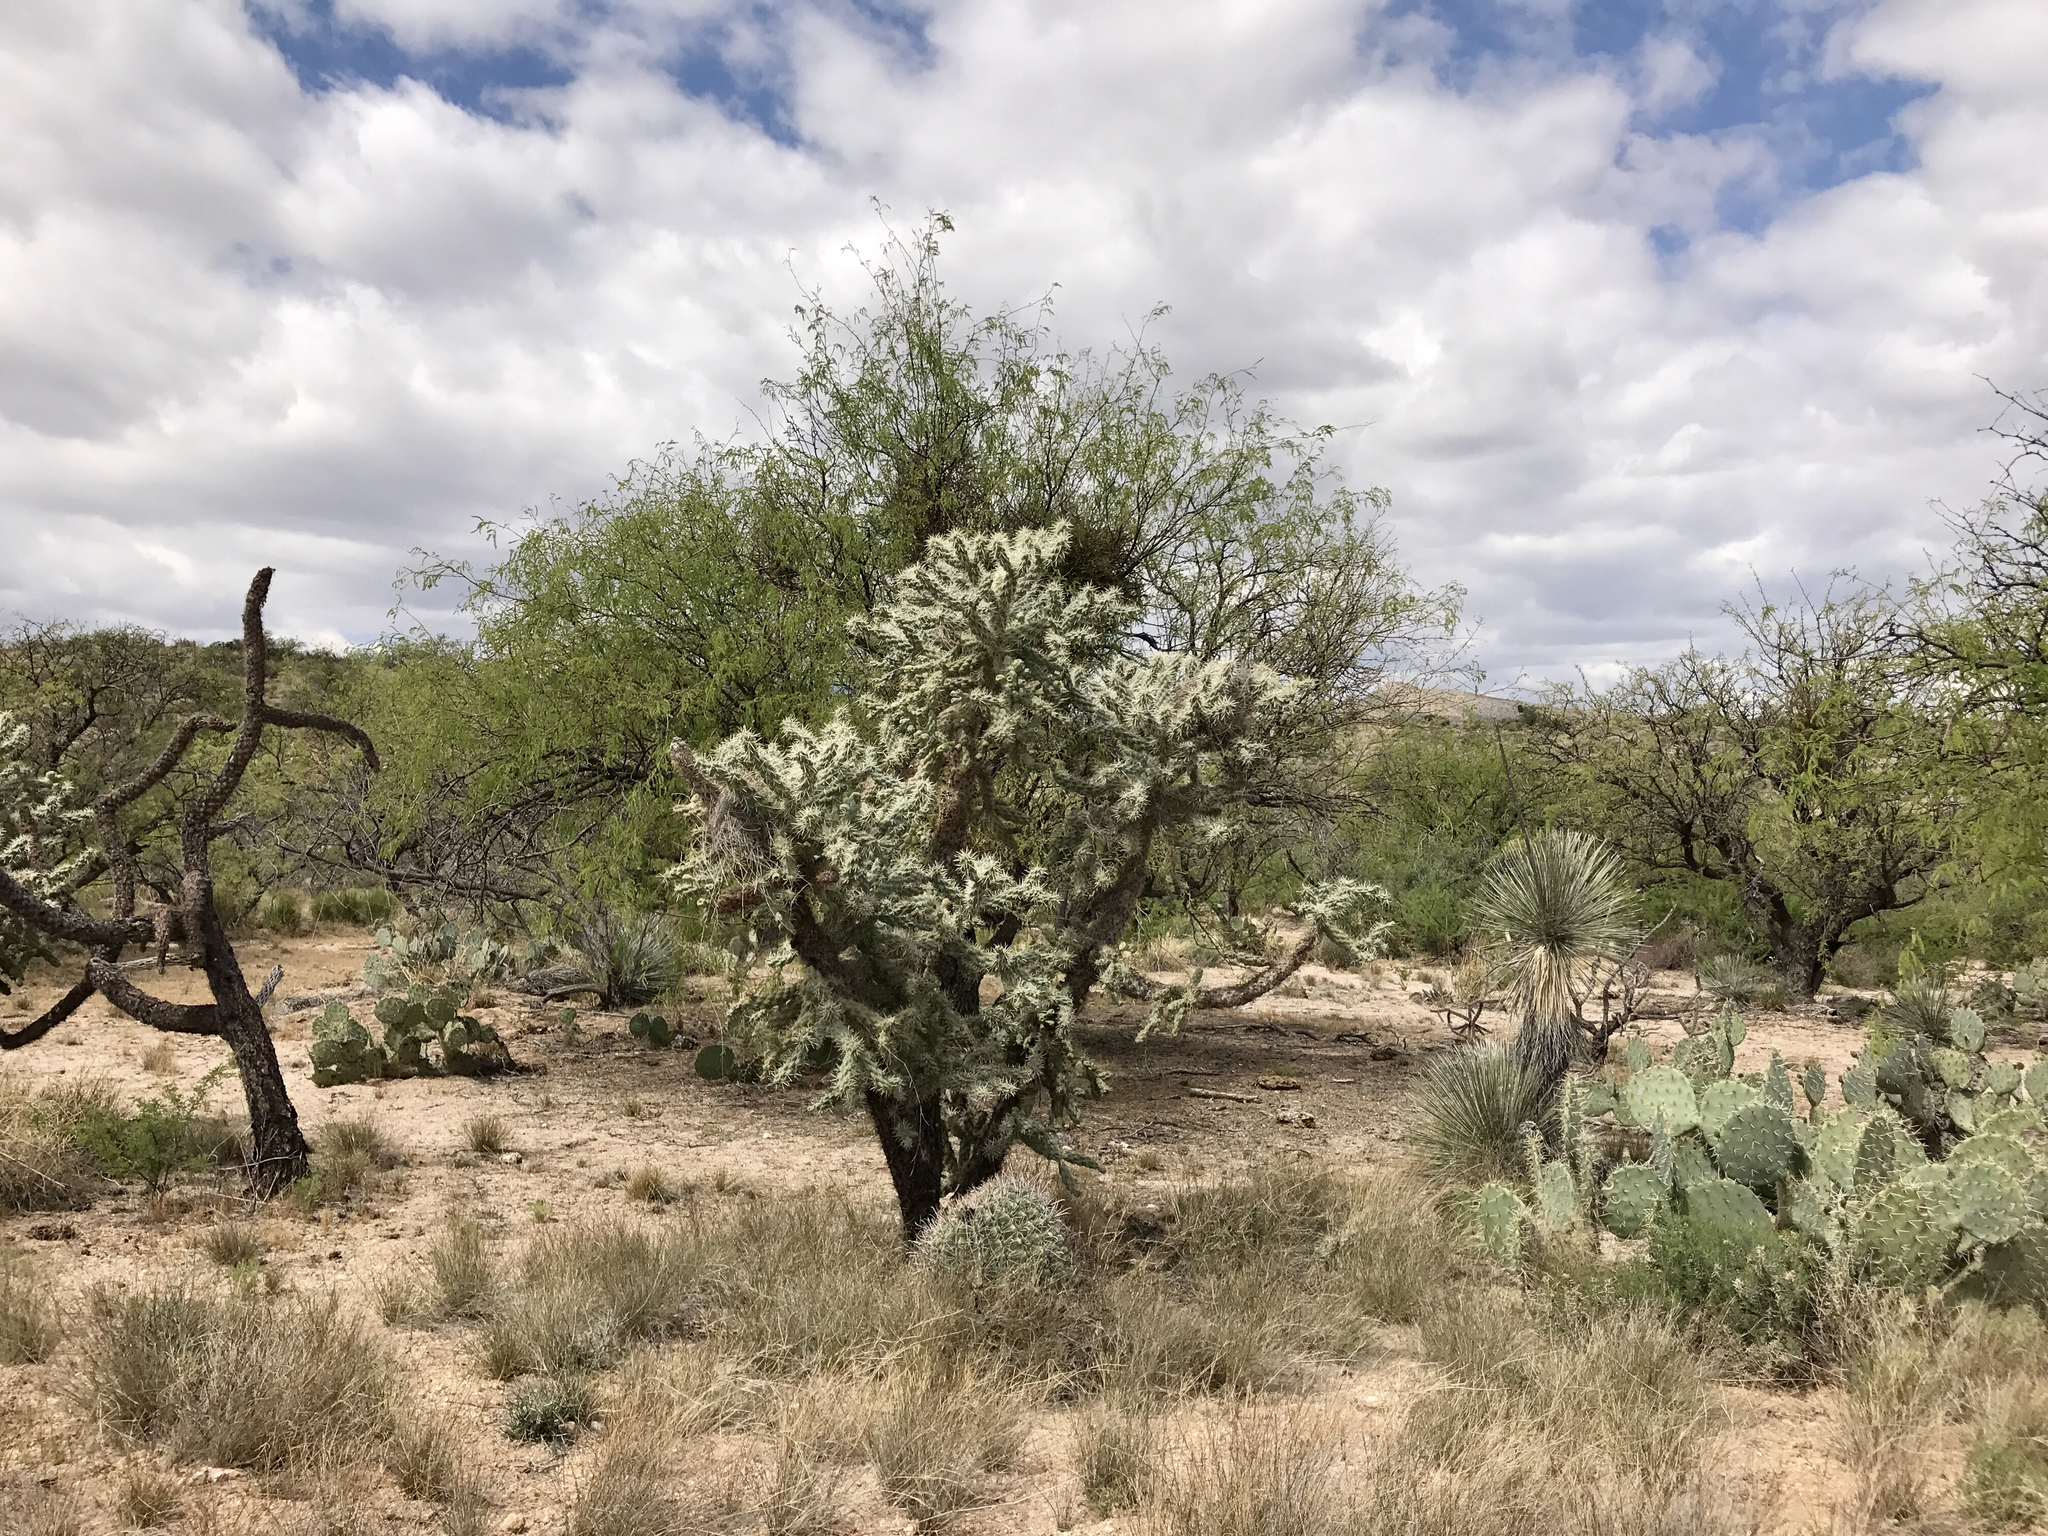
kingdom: Plantae
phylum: Tracheophyta
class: Magnoliopsida
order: Caryophyllales
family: Cactaceae
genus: Cylindropuntia
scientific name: Cylindropuntia fulgida
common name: Jumping cholla
